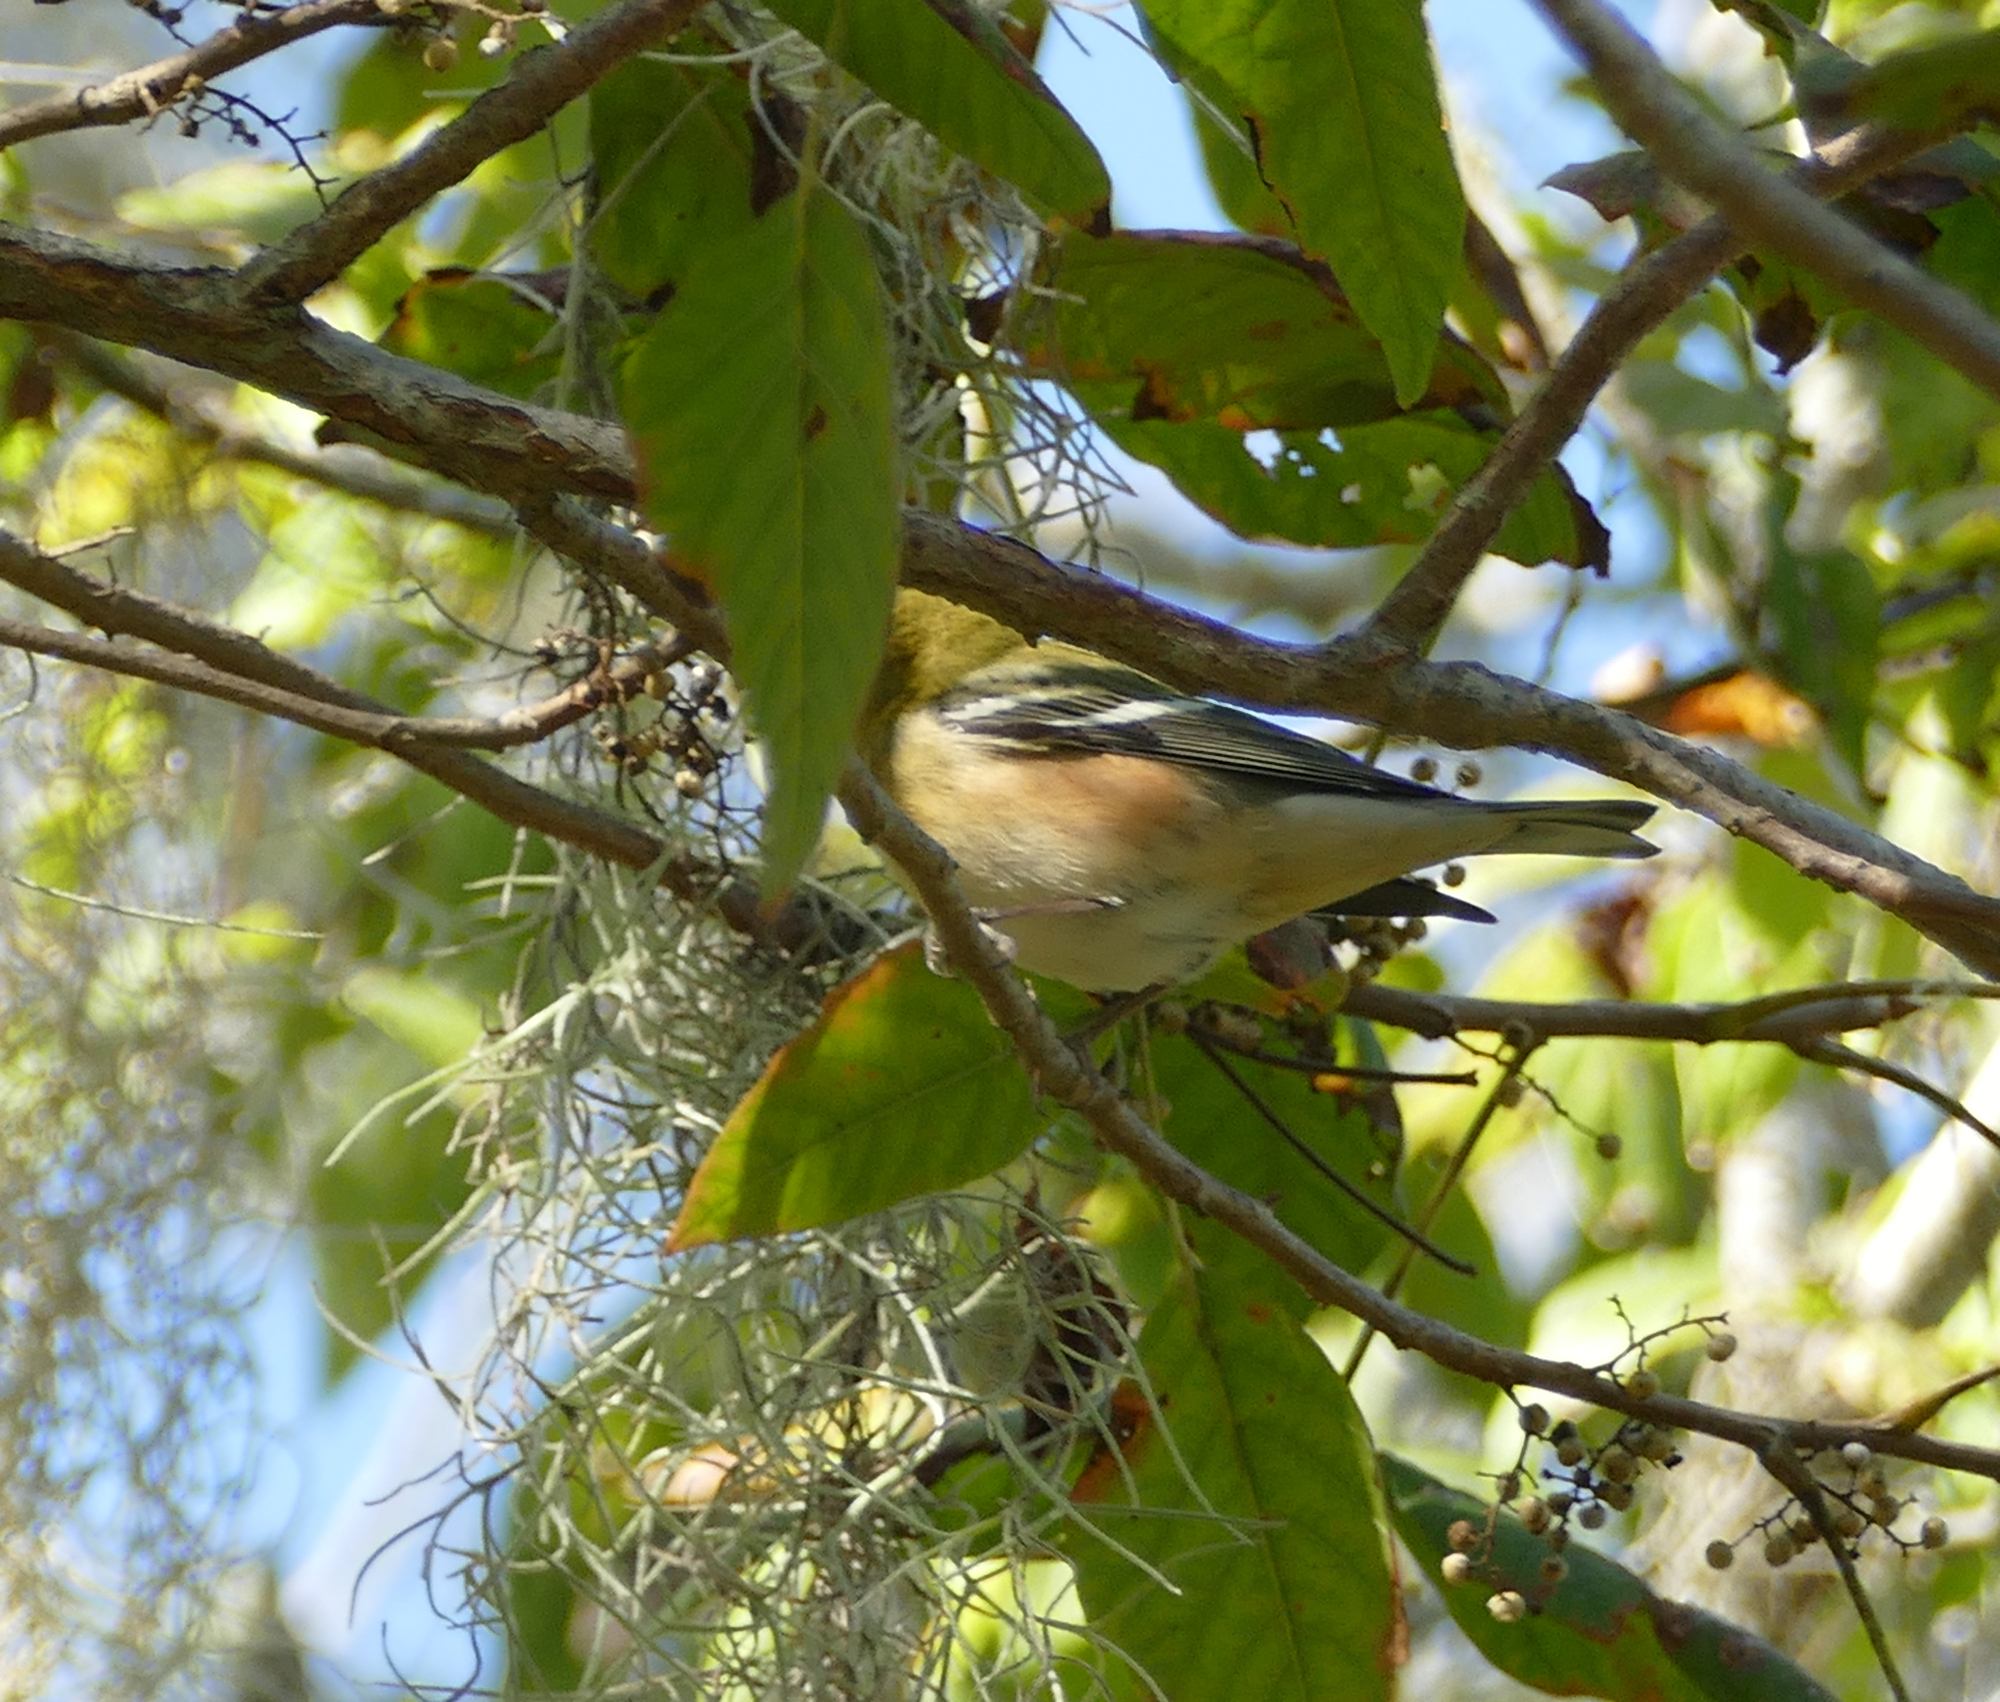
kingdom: Animalia
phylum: Chordata
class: Aves
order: Passeriformes
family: Parulidae
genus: Setophaga
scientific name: Setophaga castanea
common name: Bay-breasted warbler
